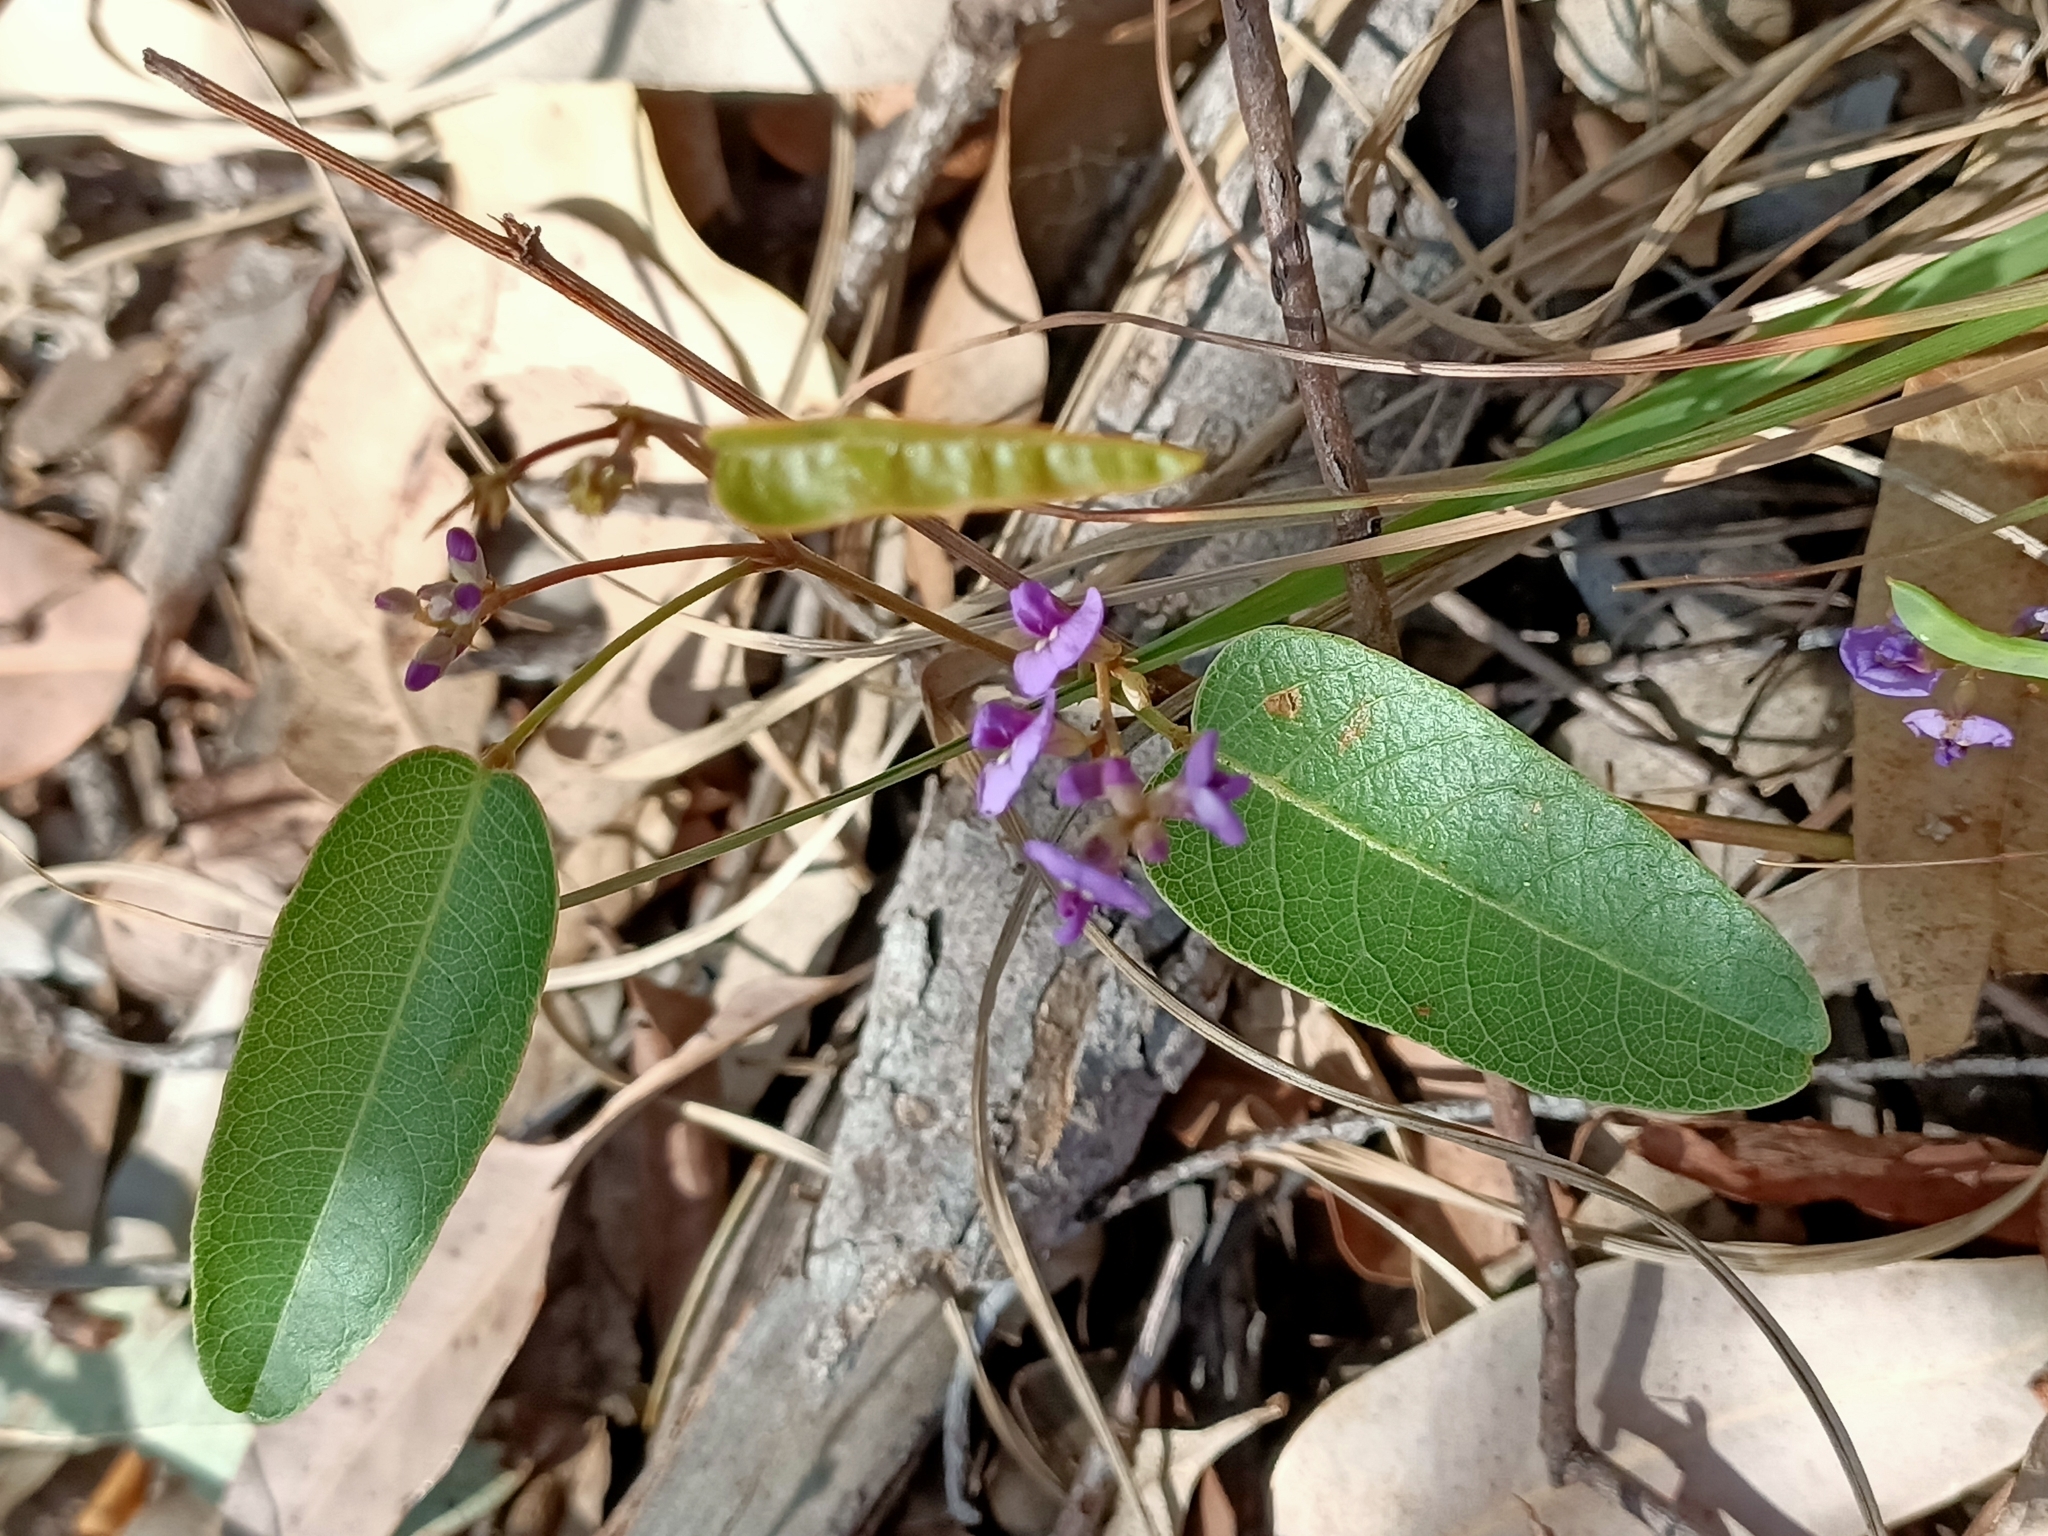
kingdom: Plantae
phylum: Tracheophyta
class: Magnoliopsida
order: Fabales
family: Fabaceae
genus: Hardenbergia
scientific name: Hardenbergia violacea
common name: Coral-pea
